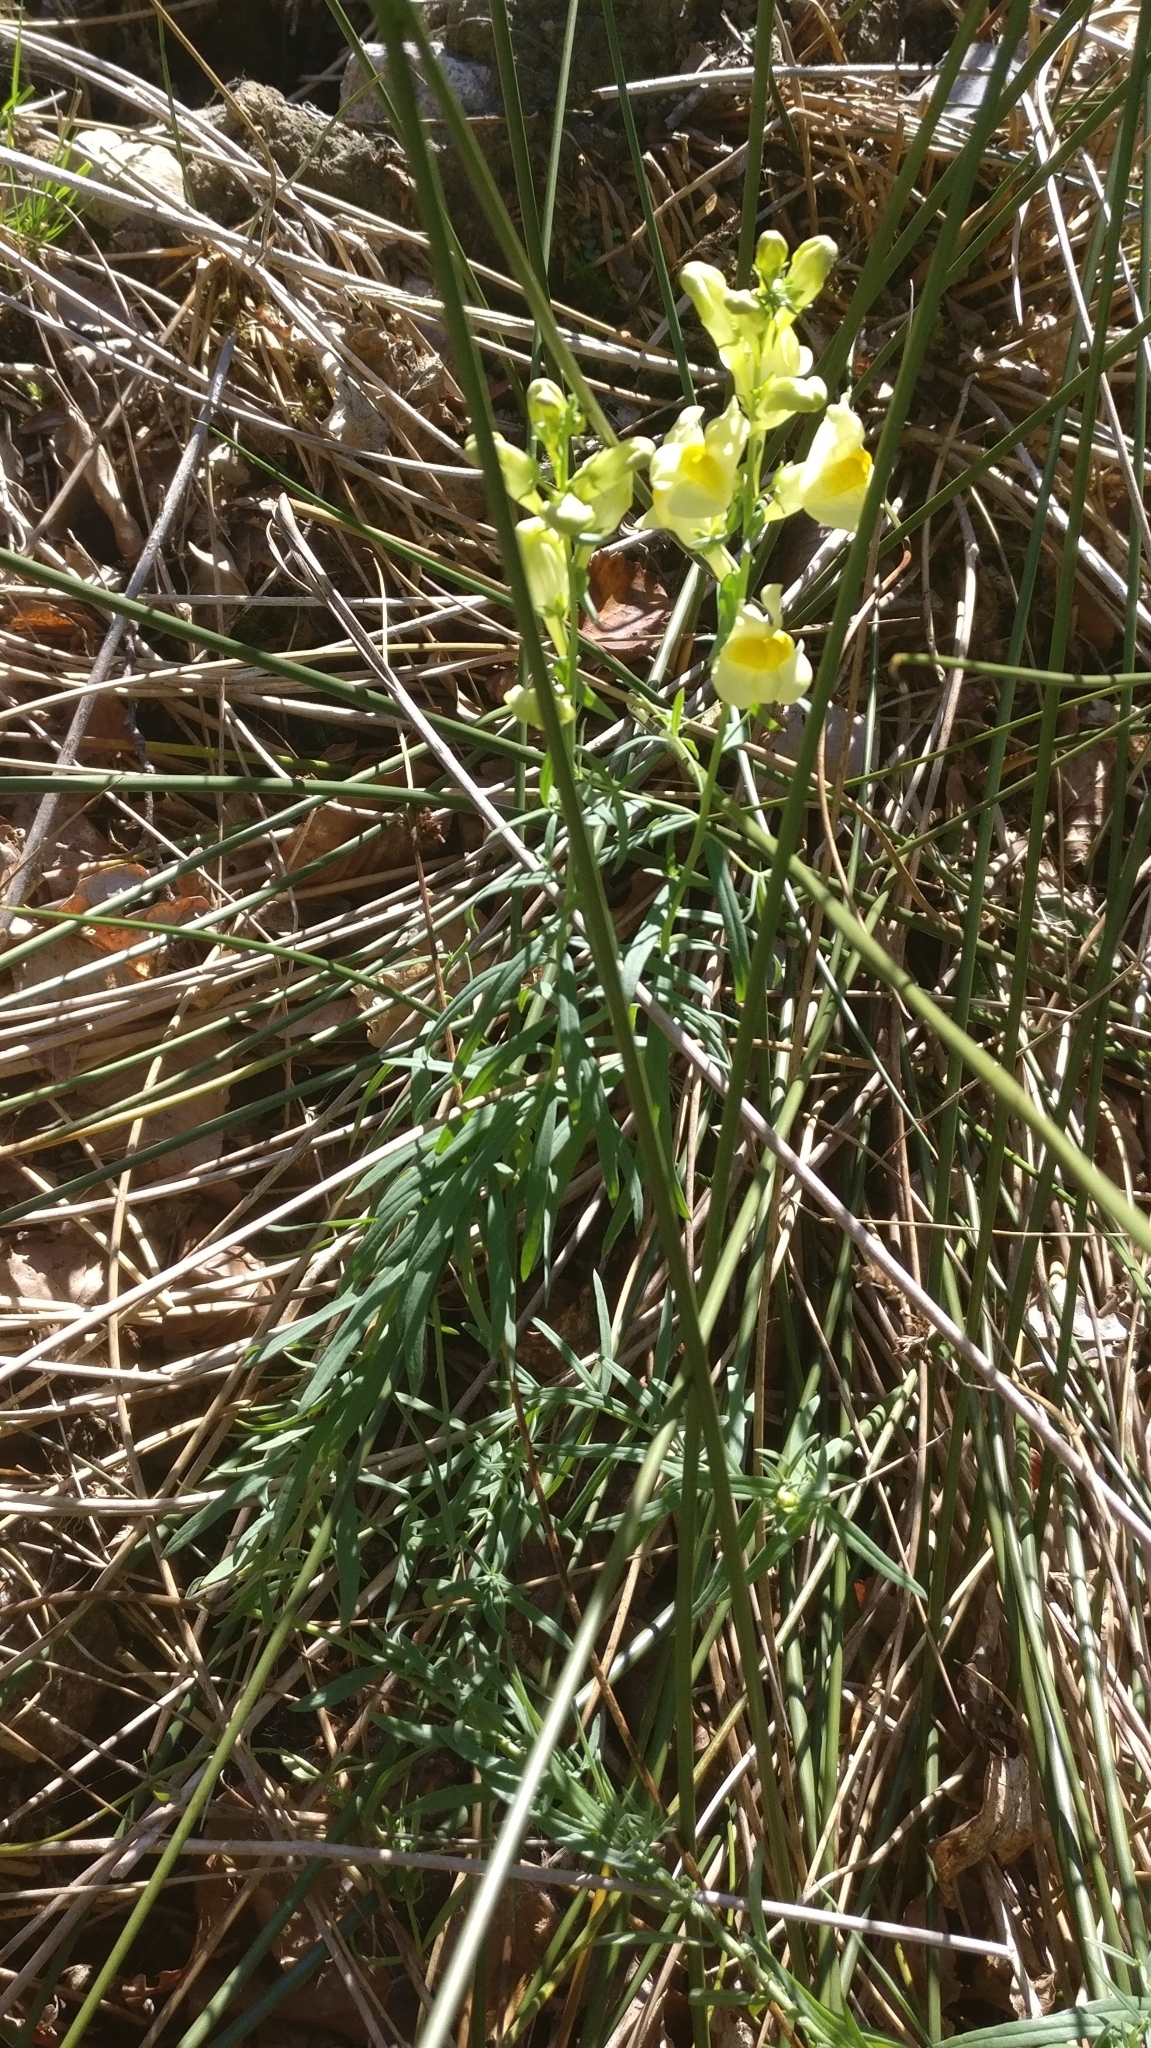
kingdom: Plantae
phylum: Tracheophyta
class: Magnoliopsida
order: Lamiales
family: Plantaginaceae
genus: Linaria
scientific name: Linaria vulgaris
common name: Butter and eggs
